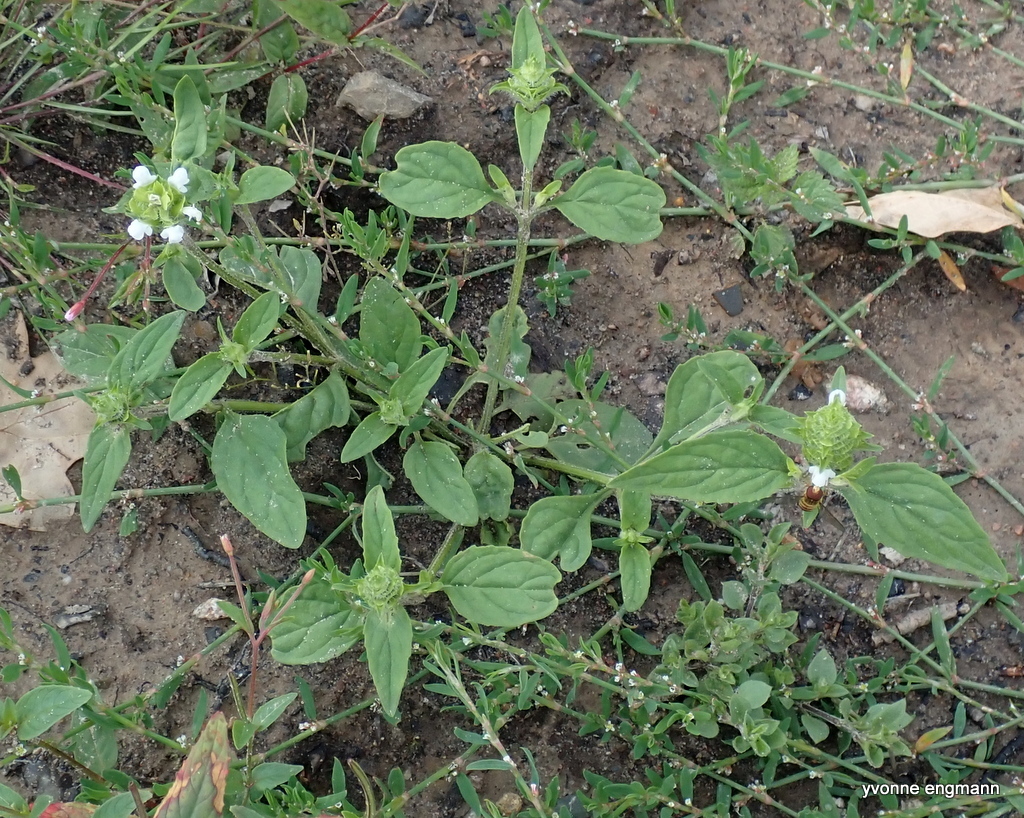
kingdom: Plantae
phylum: Tracheophyta
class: Magnoliopsida
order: Lamiales
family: Lamiaceae
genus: Prunella
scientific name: Prunella vulgaris
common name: Heal-all
